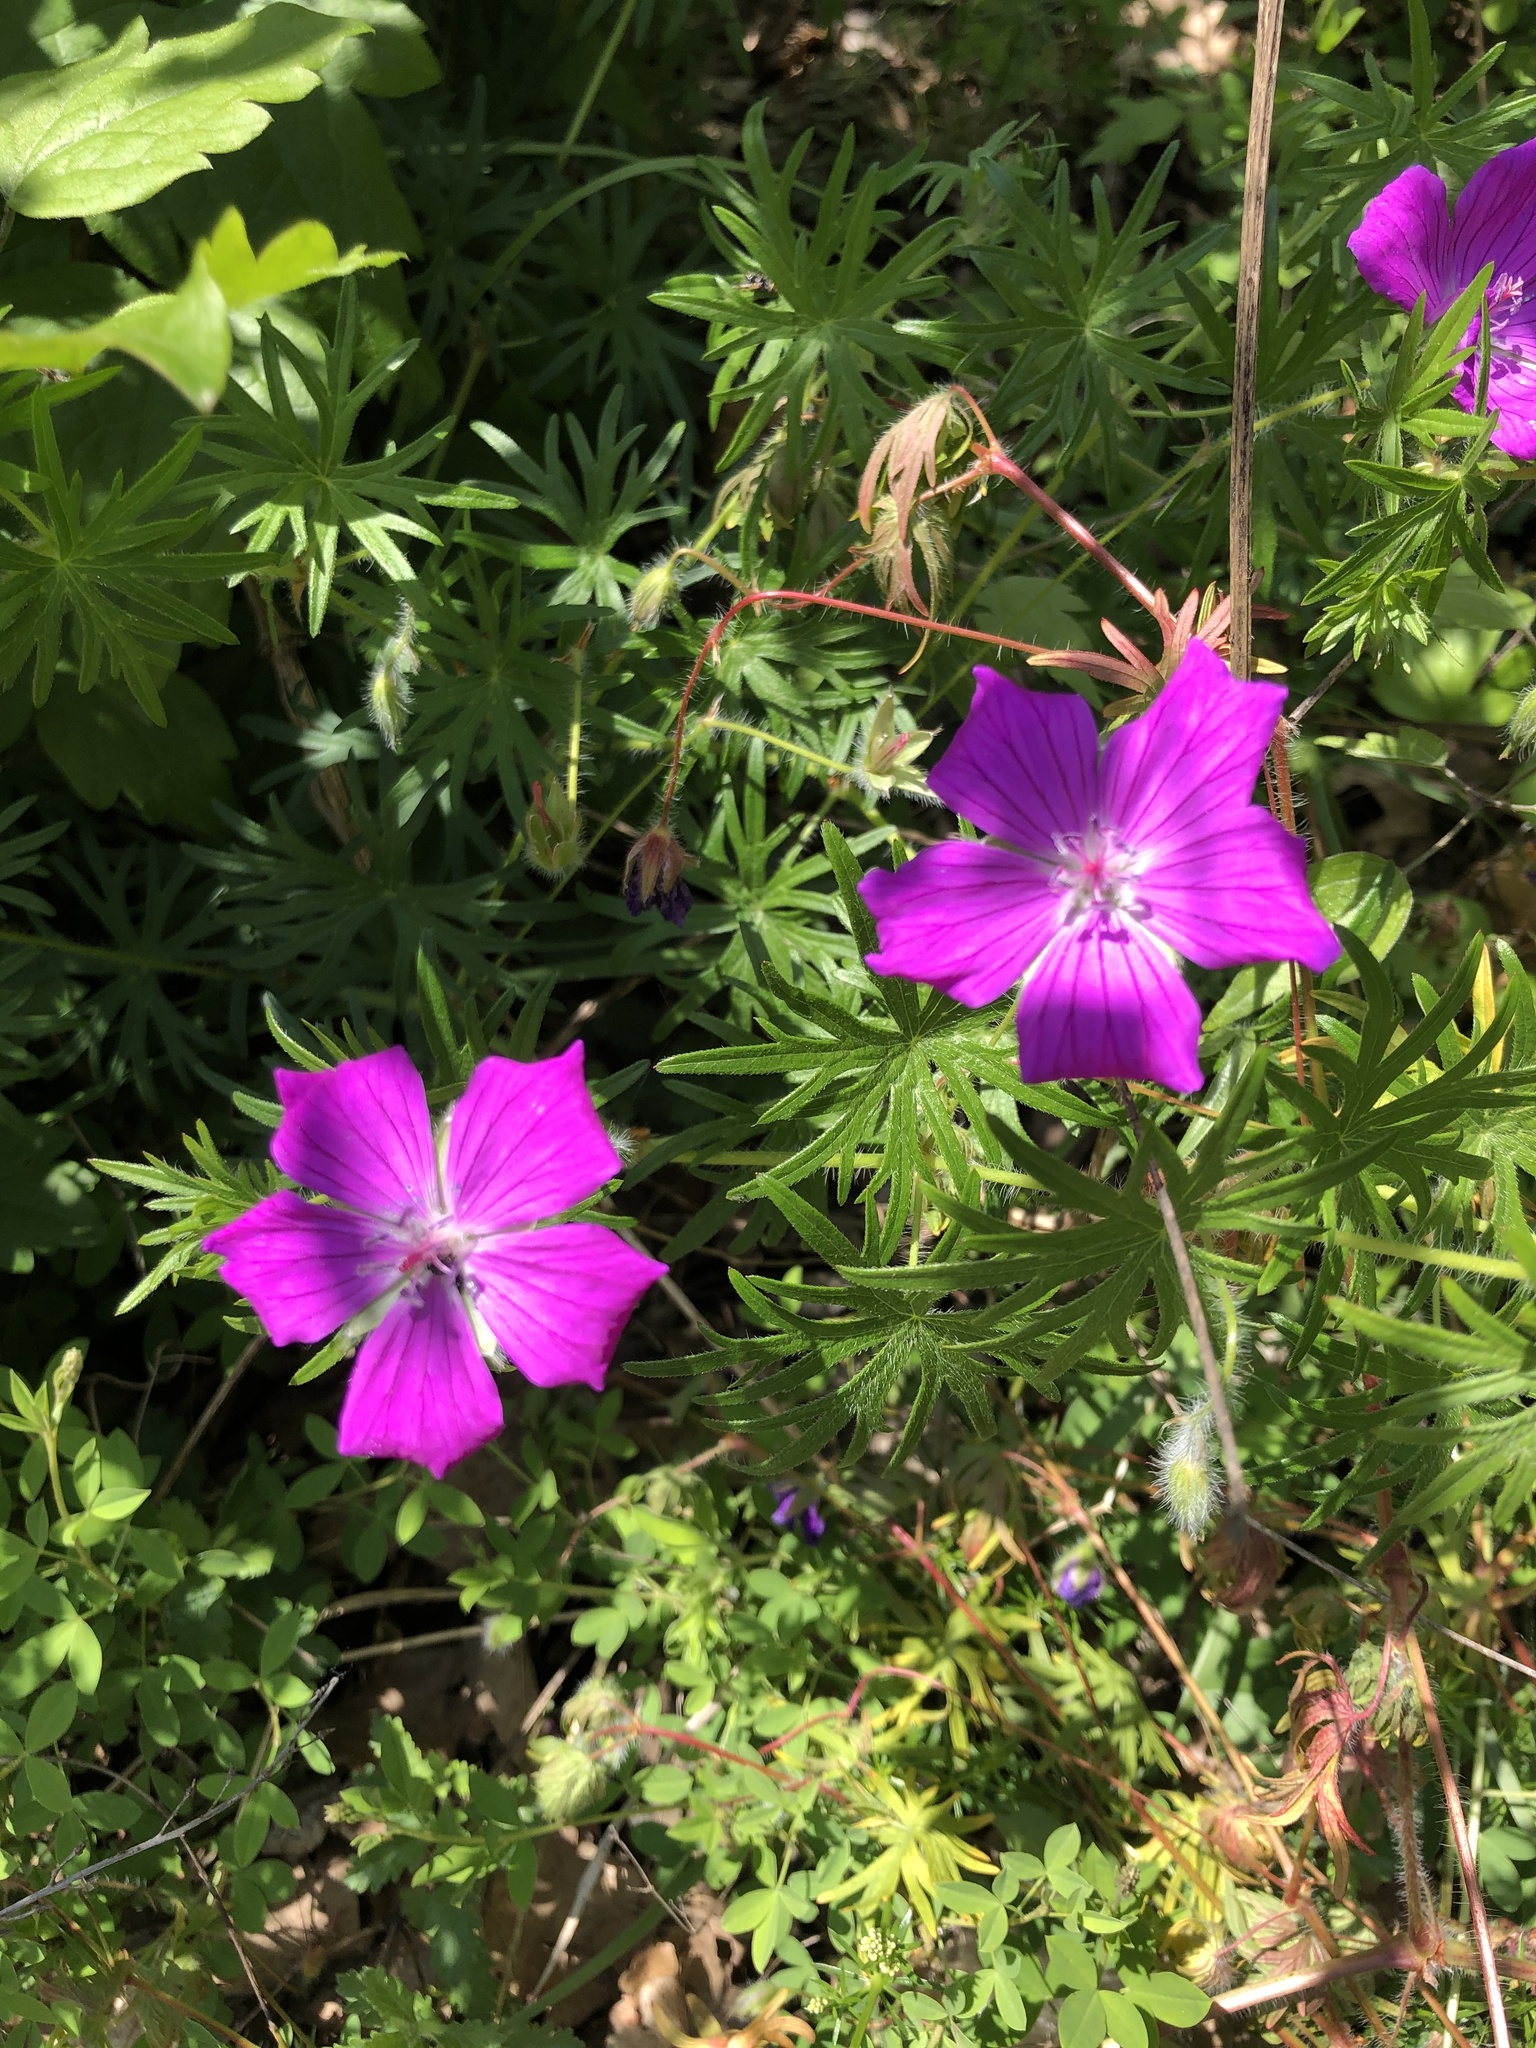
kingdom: Plantae
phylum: Tracheophyta
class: Magnoliopsida
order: Geraniales
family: Geraniaceae
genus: Geranium
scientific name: Geranium sanguineum
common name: Bloody crane's-bill
